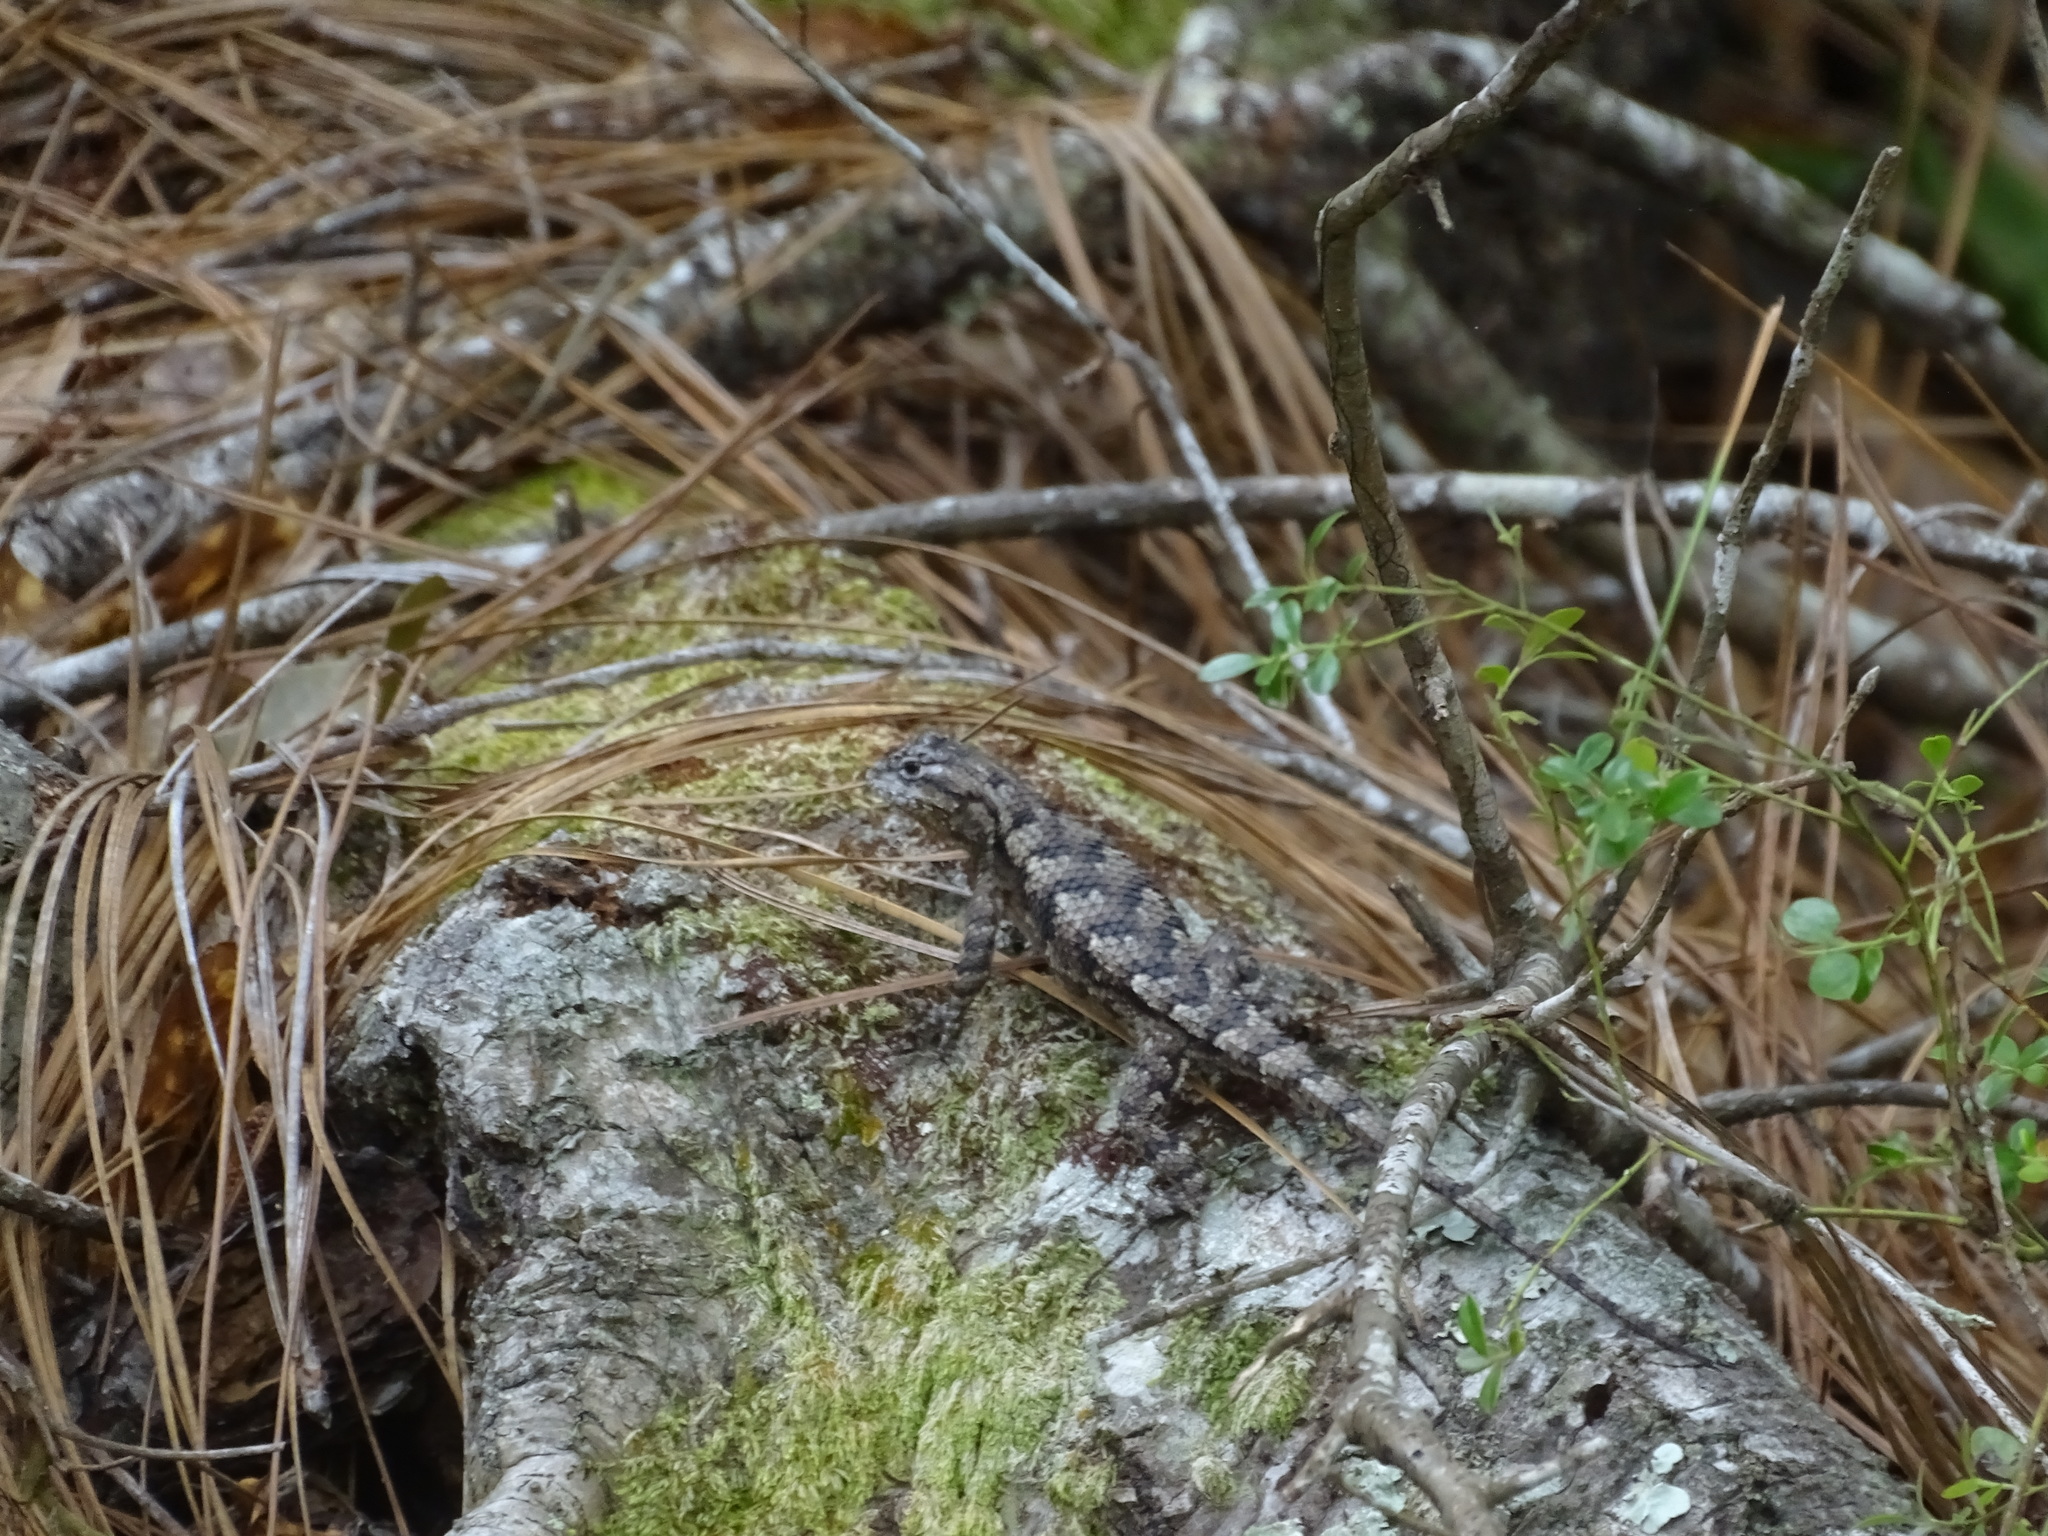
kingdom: Animalia
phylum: Chordata
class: Squamata
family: Phrynosomatidae
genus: Sceloporus
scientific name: Sceloporus undulatus
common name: Eastern fence lizard
